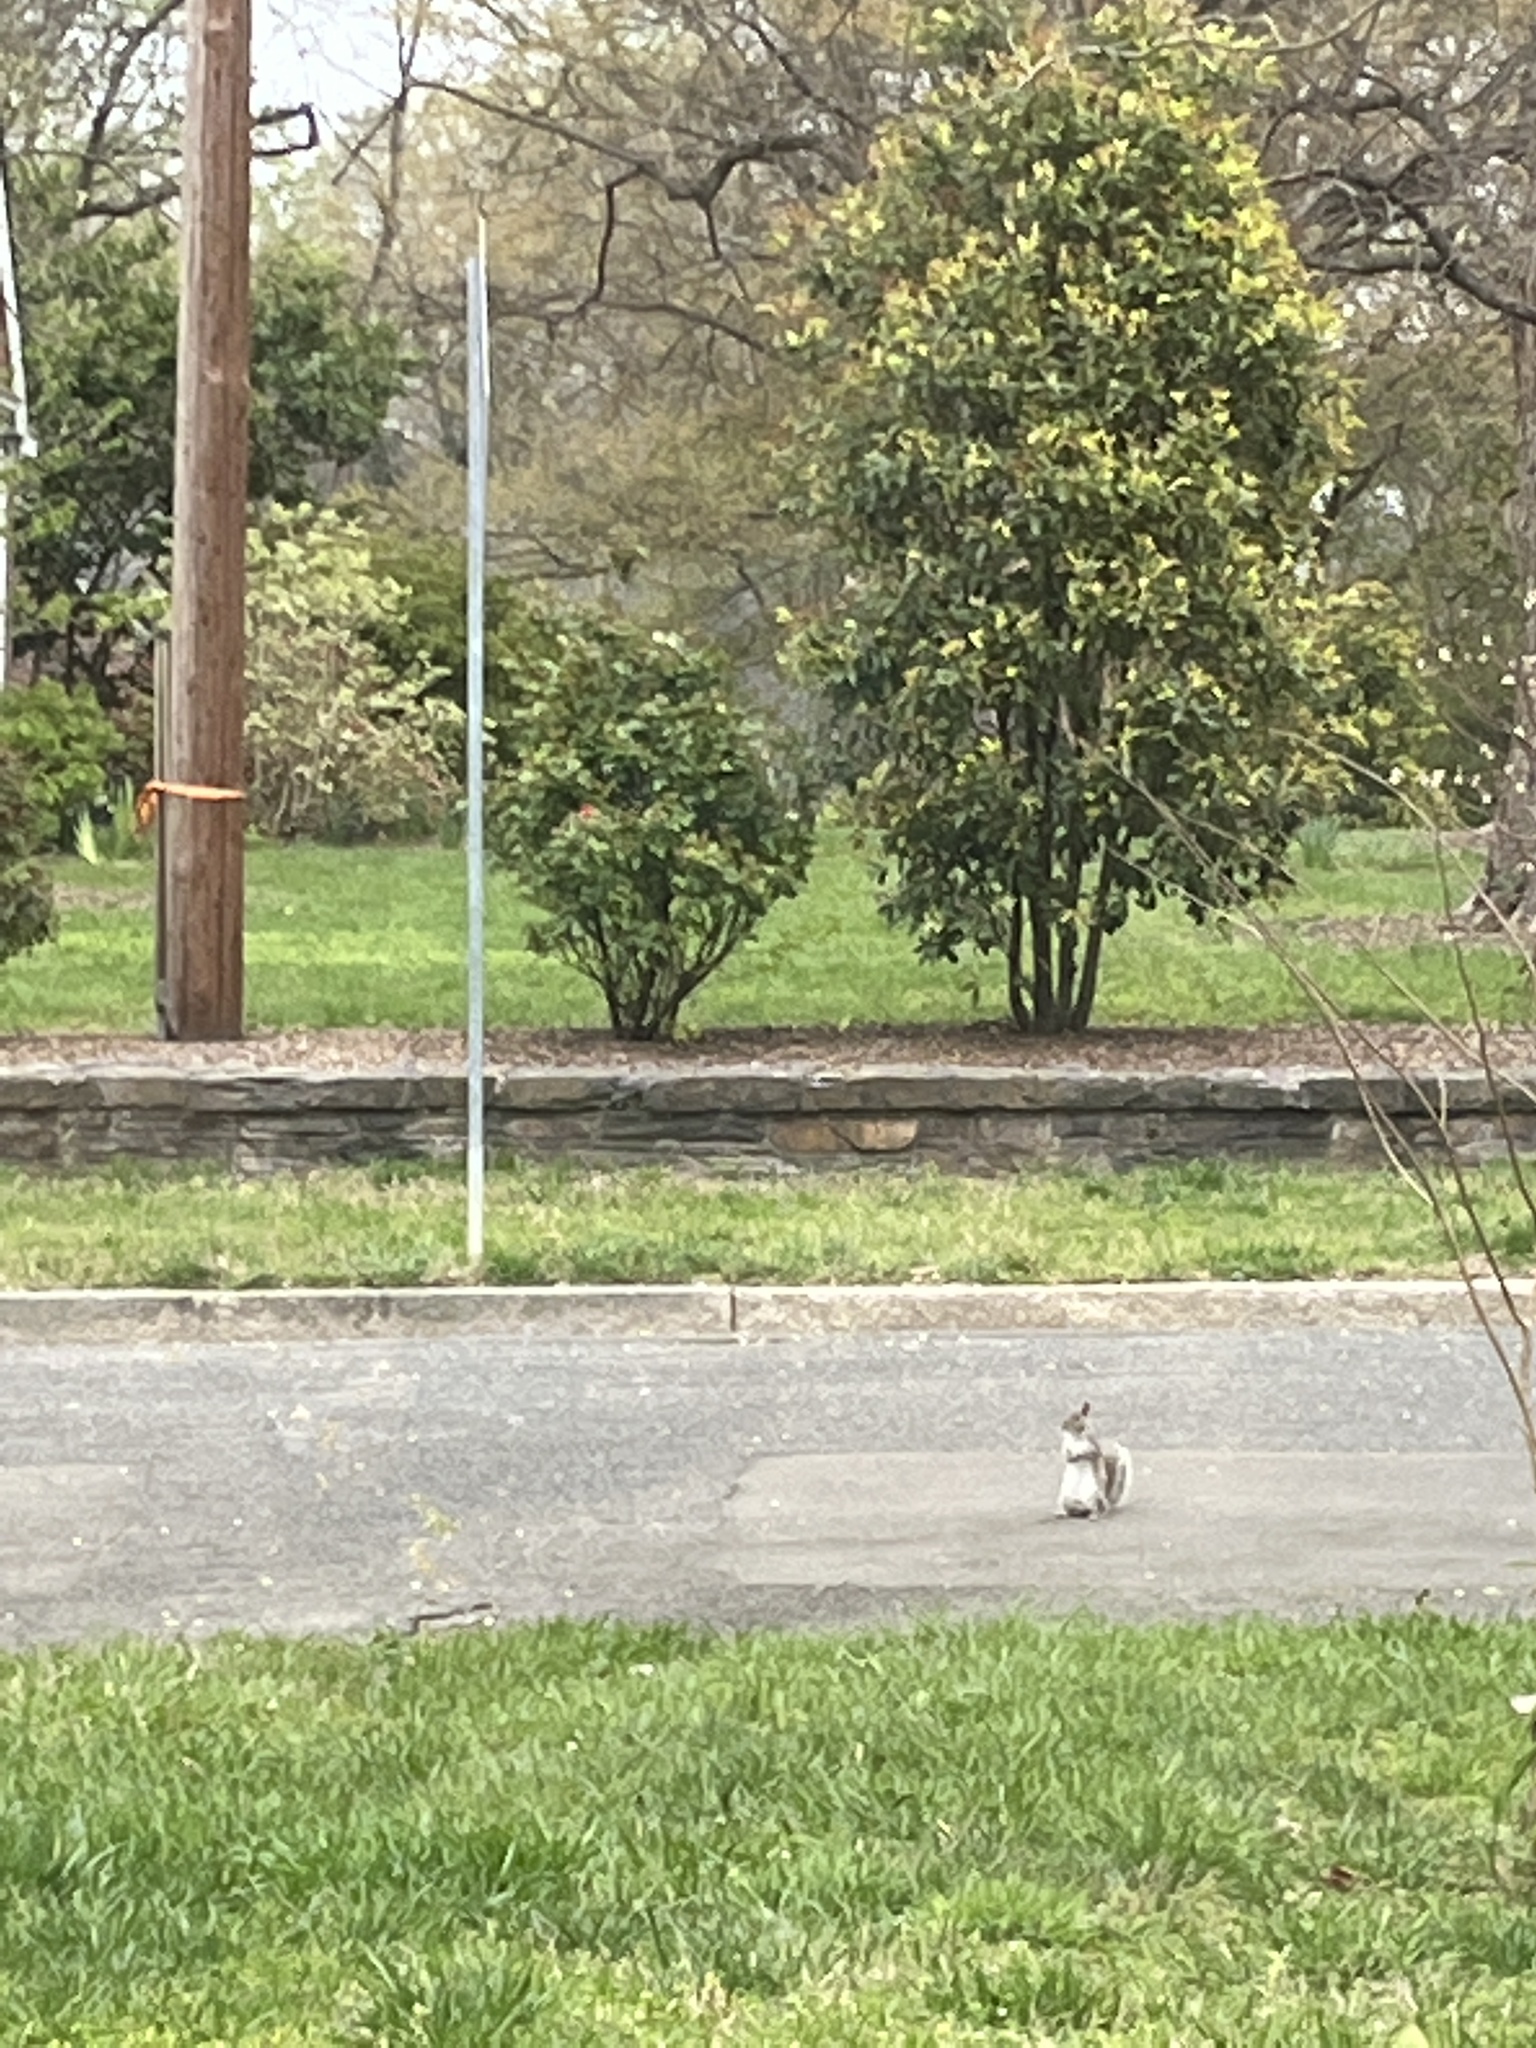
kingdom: Animalia
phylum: Chordata
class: Mammalia
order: Rodentia
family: Sciuridae
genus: Sciurus
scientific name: Sciurus carolinensis
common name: Eastern gray squirrel
